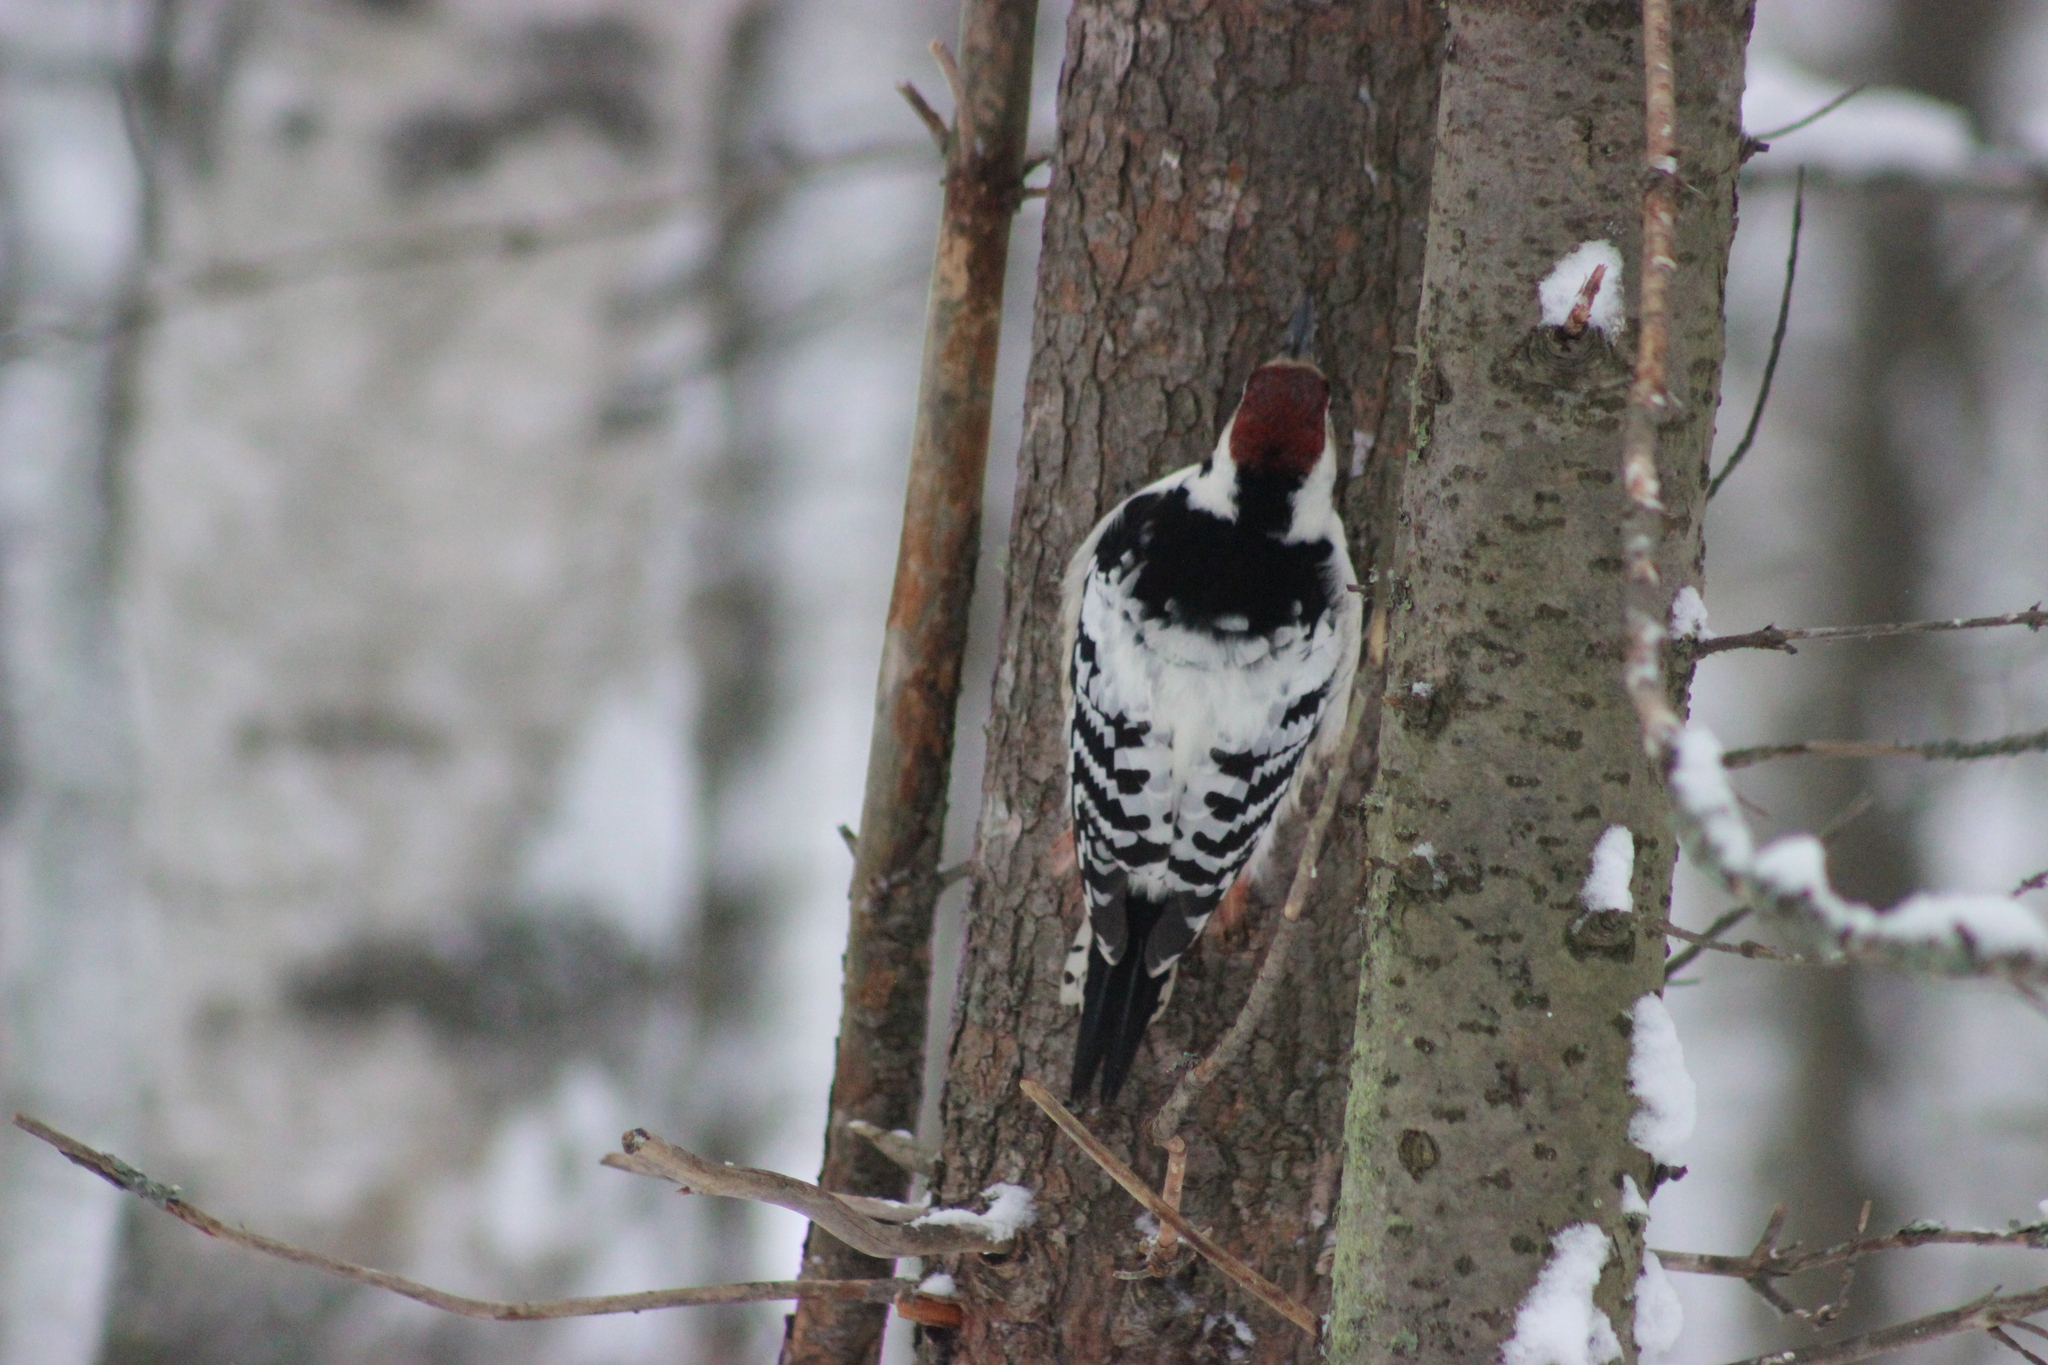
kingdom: Animalia
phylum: Chordata
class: Aves
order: Piciformes
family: Picidae
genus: Dendrocopos
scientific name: Dendrocopos leucotos
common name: White-backed woodpecker
